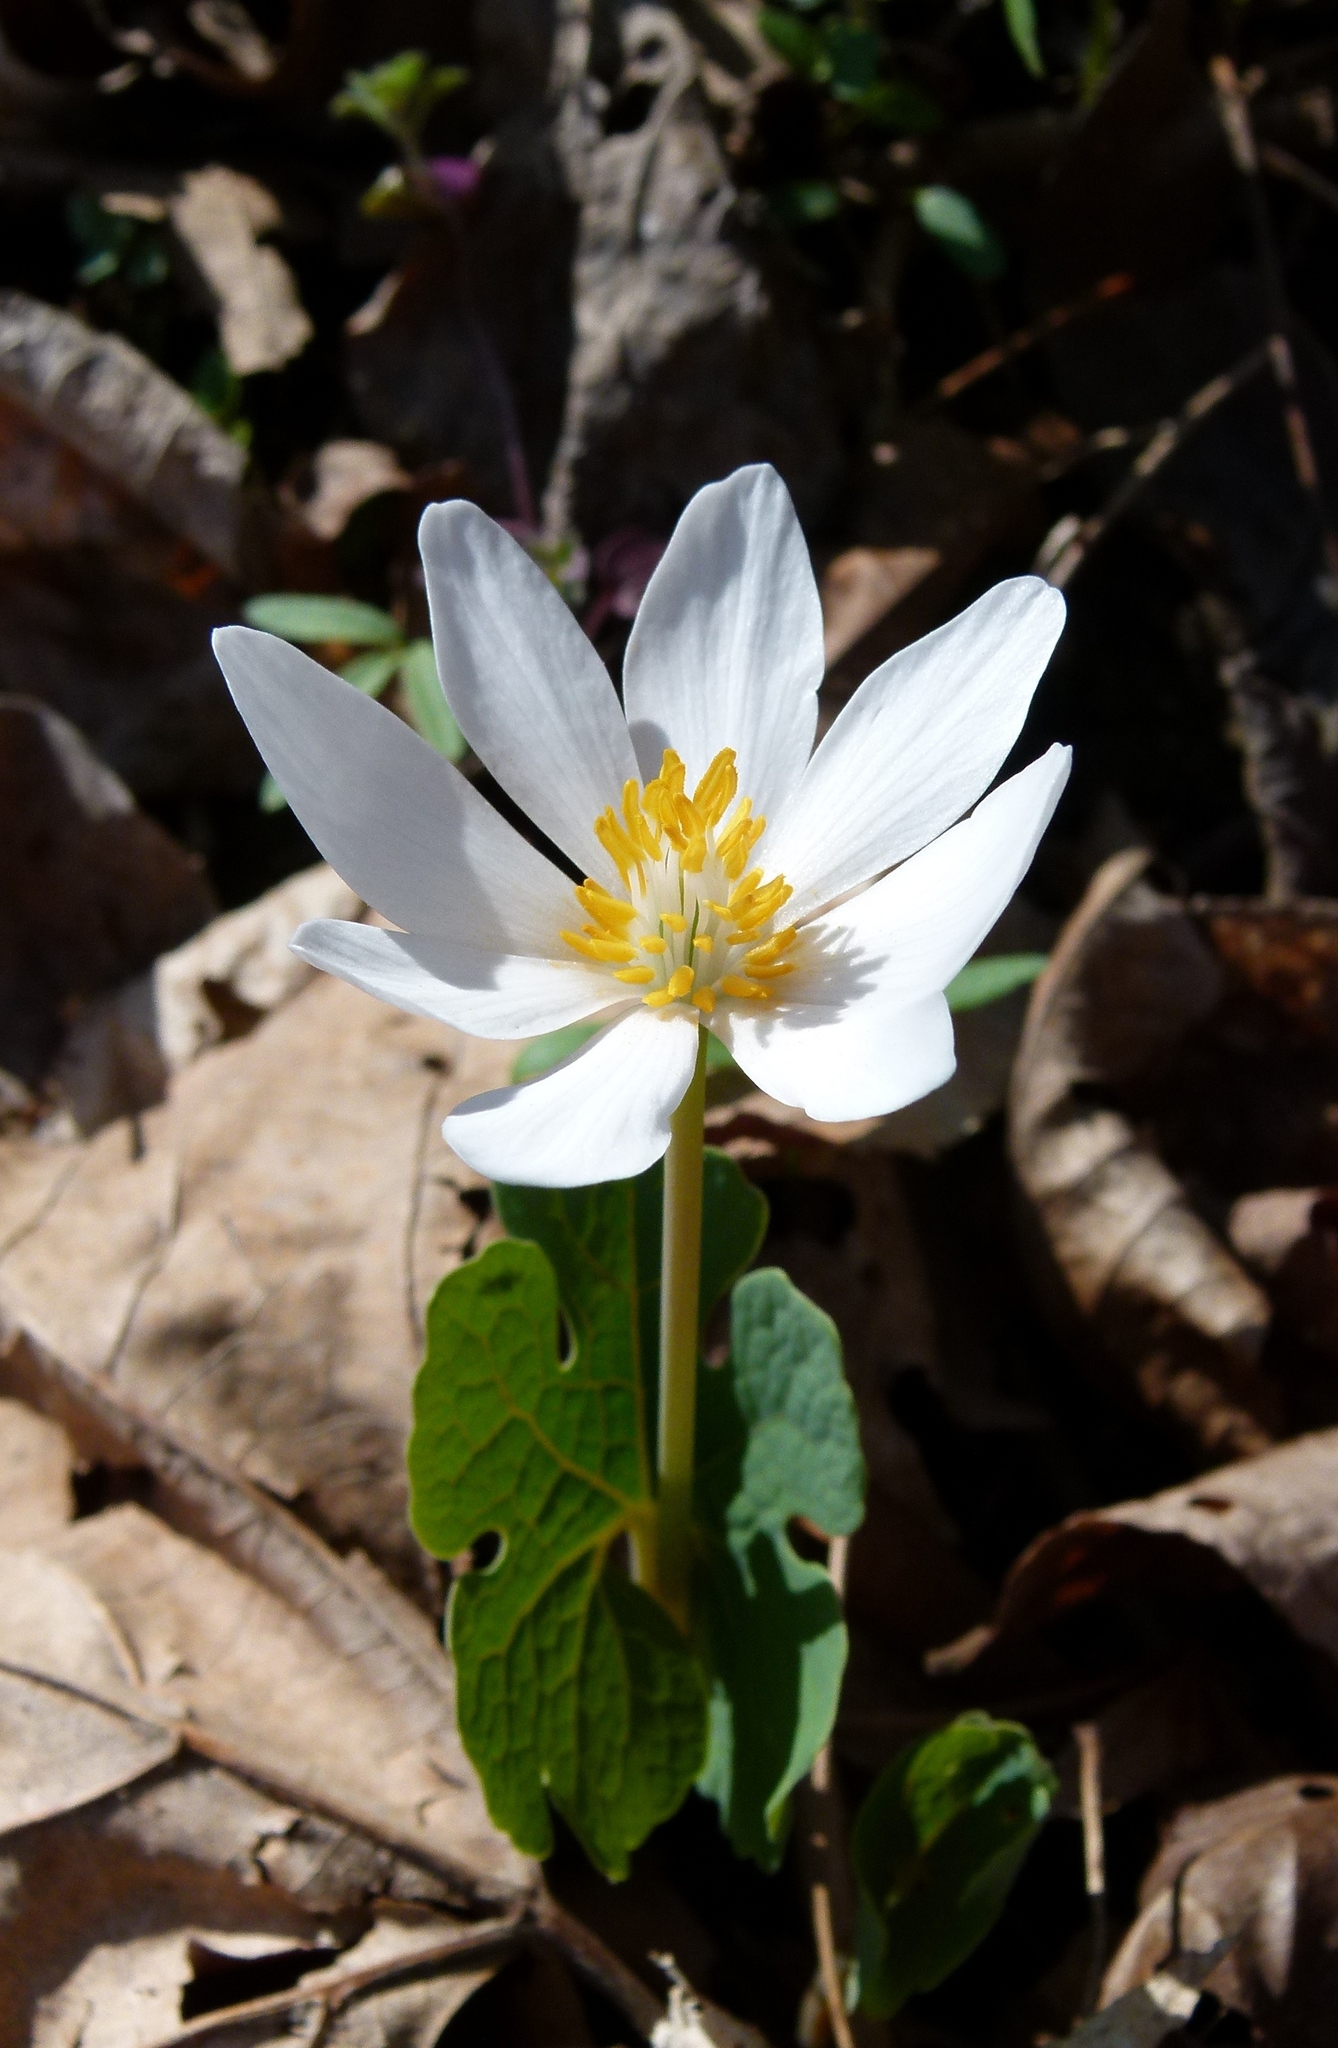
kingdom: Plantae
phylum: Tracheophyta
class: Magnoliopsida
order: Ranunculales
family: Papaveraceae
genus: Sanguinaria
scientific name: Sanguinaria canadensis
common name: Bloodroot
